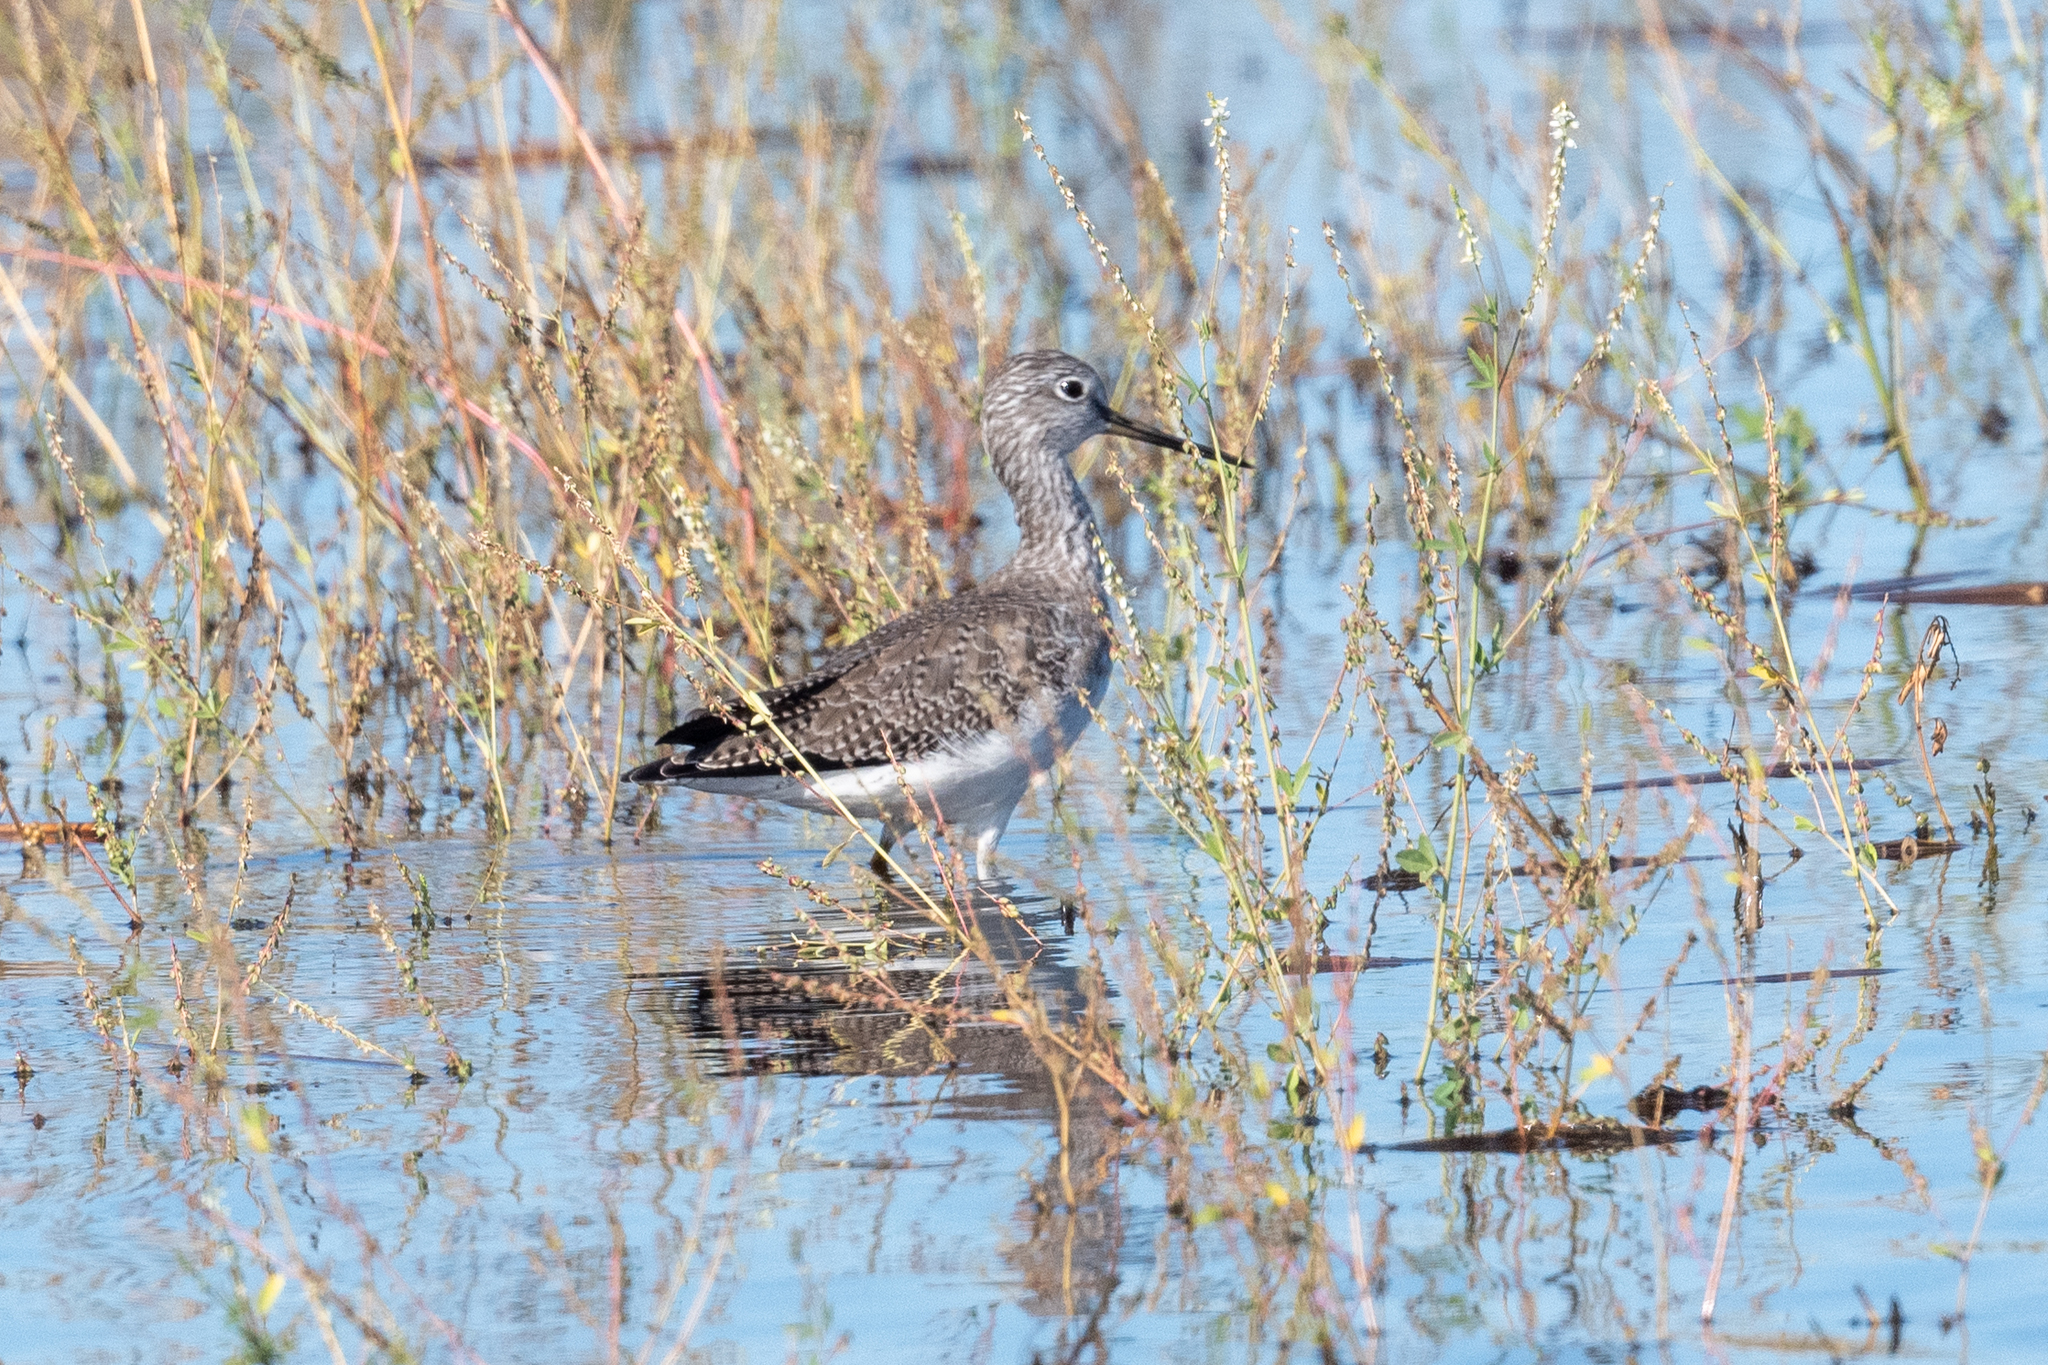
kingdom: Animalia
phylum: Chordata
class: Aves
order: Charadriiformes
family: Scolopacidae
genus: Tringa
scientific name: Tringa melanoleuca
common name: Greater yellowlegs
